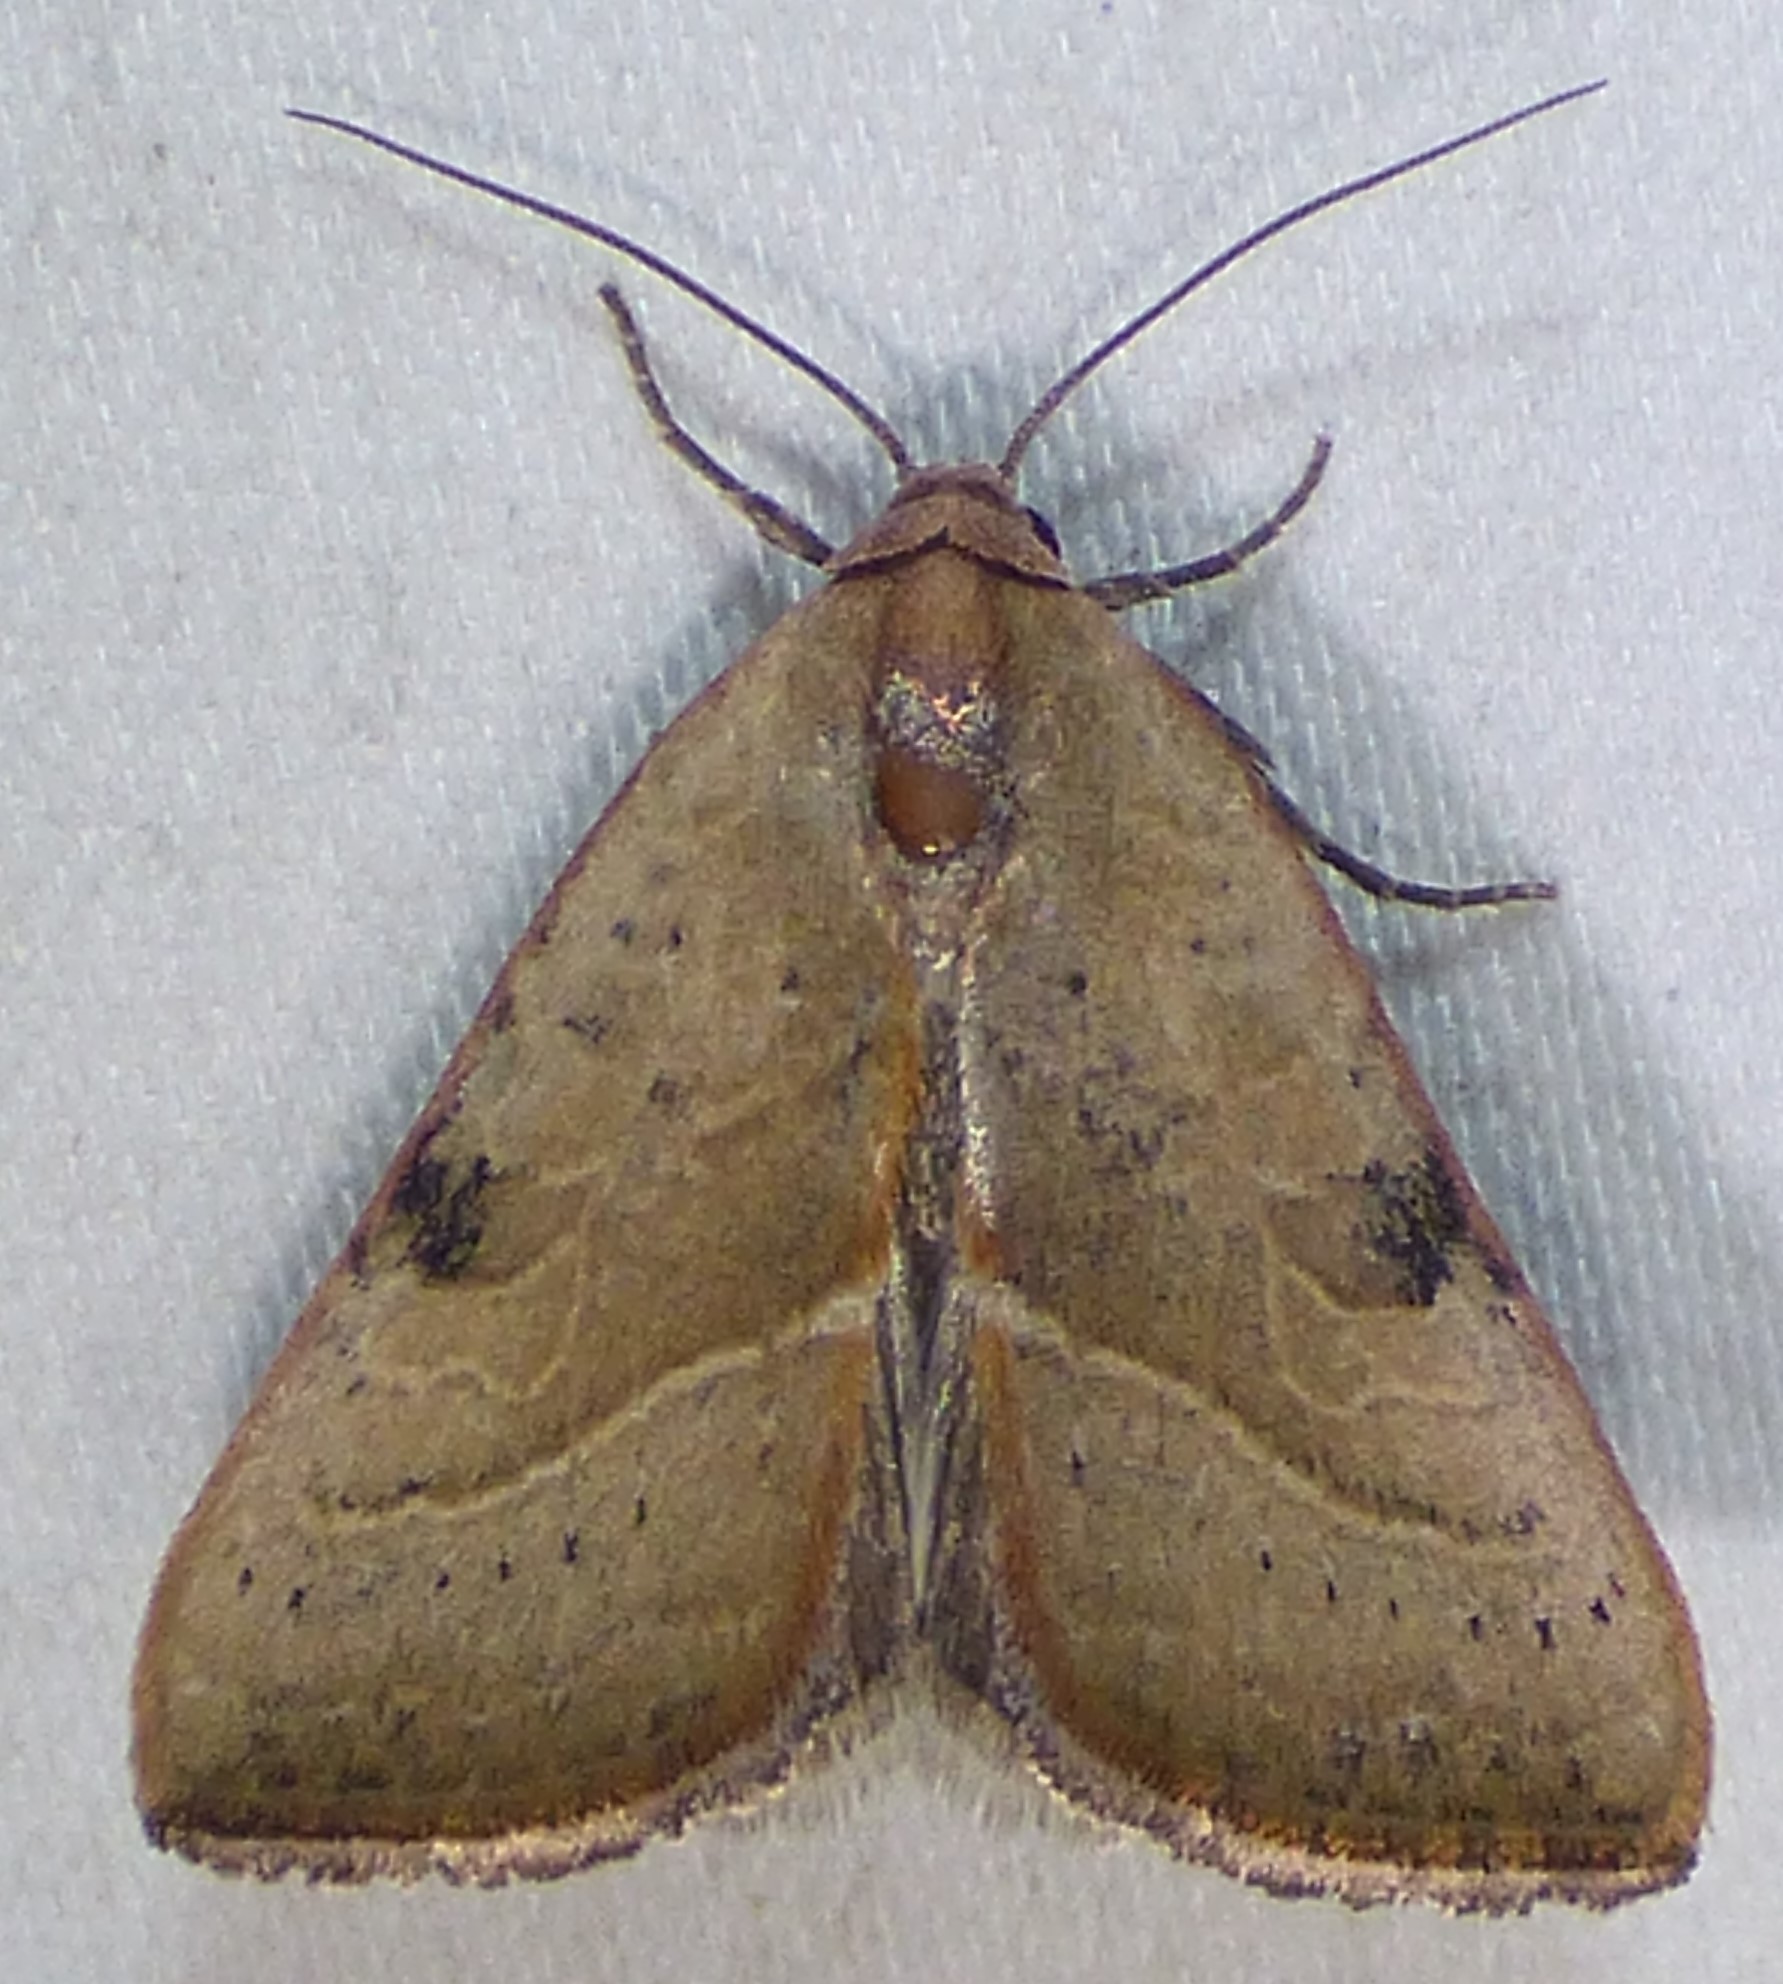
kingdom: Animalia
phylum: Arthropoda
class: Insecta
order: Lepidoptera
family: Noctuidae
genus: Galgula
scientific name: Galgula partita
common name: Wedgeling
